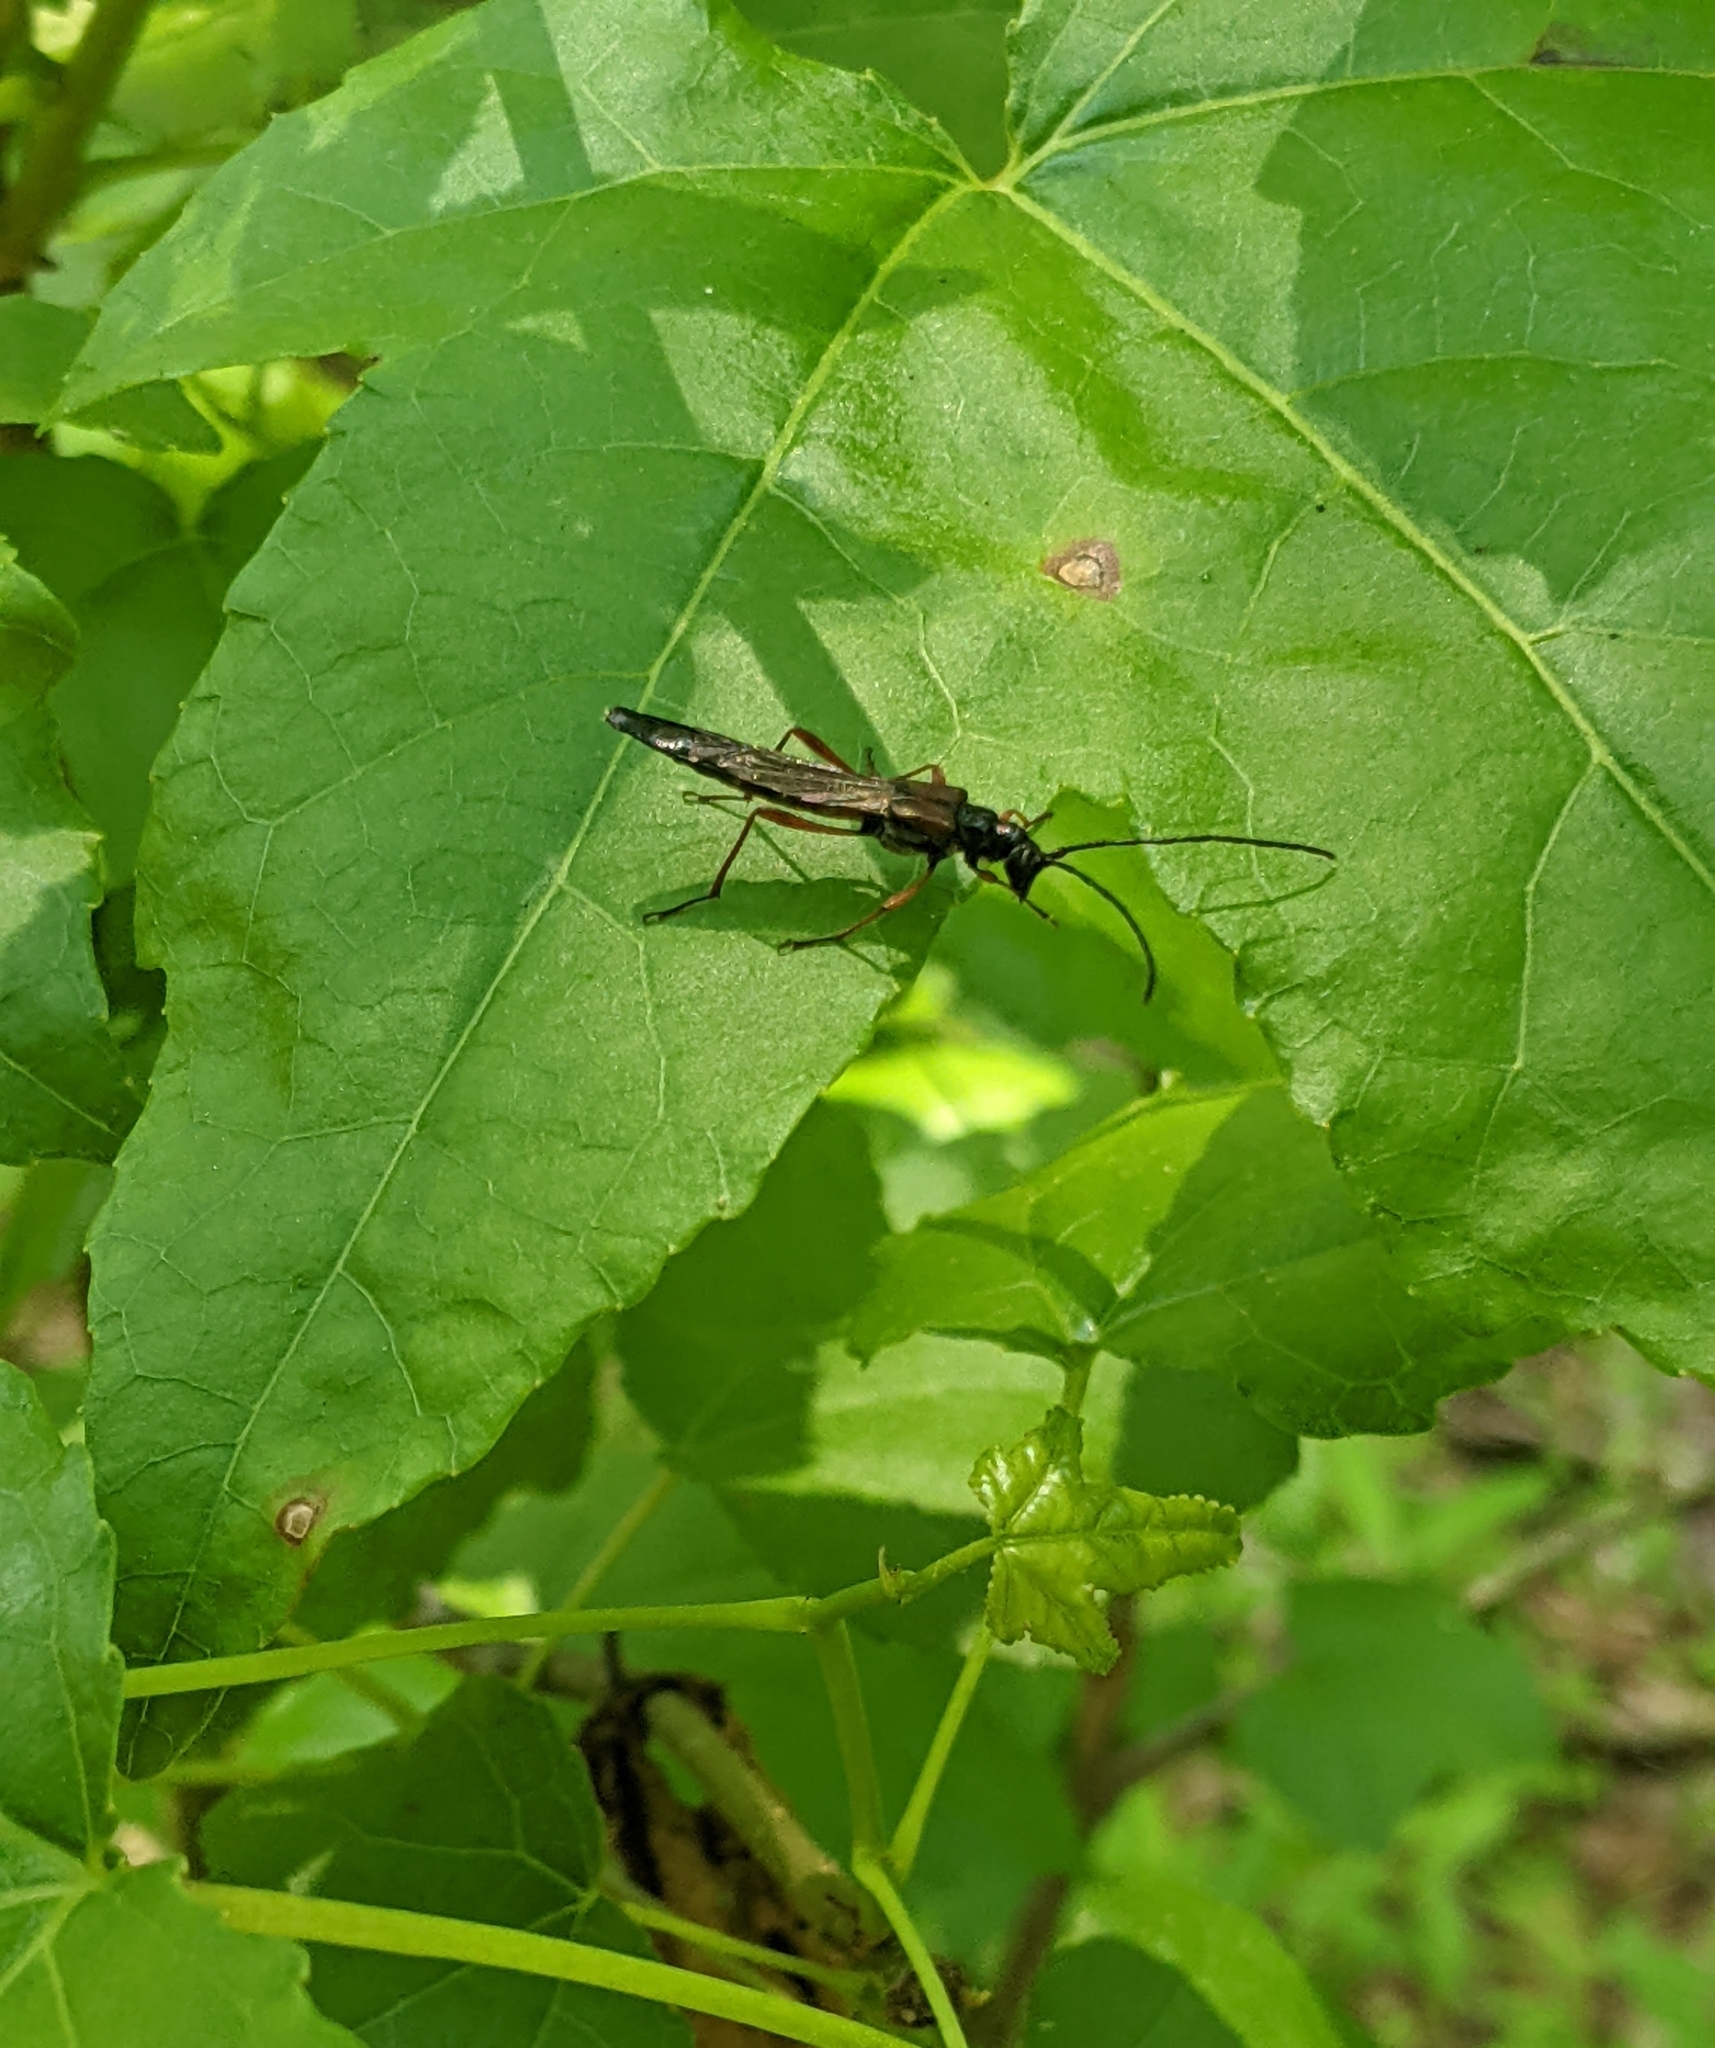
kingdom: Animalia
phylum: Arthropoda
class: Insecta
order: Coleoptera
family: Cerambycidae
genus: Necydalis
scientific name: Necydalis mellita
